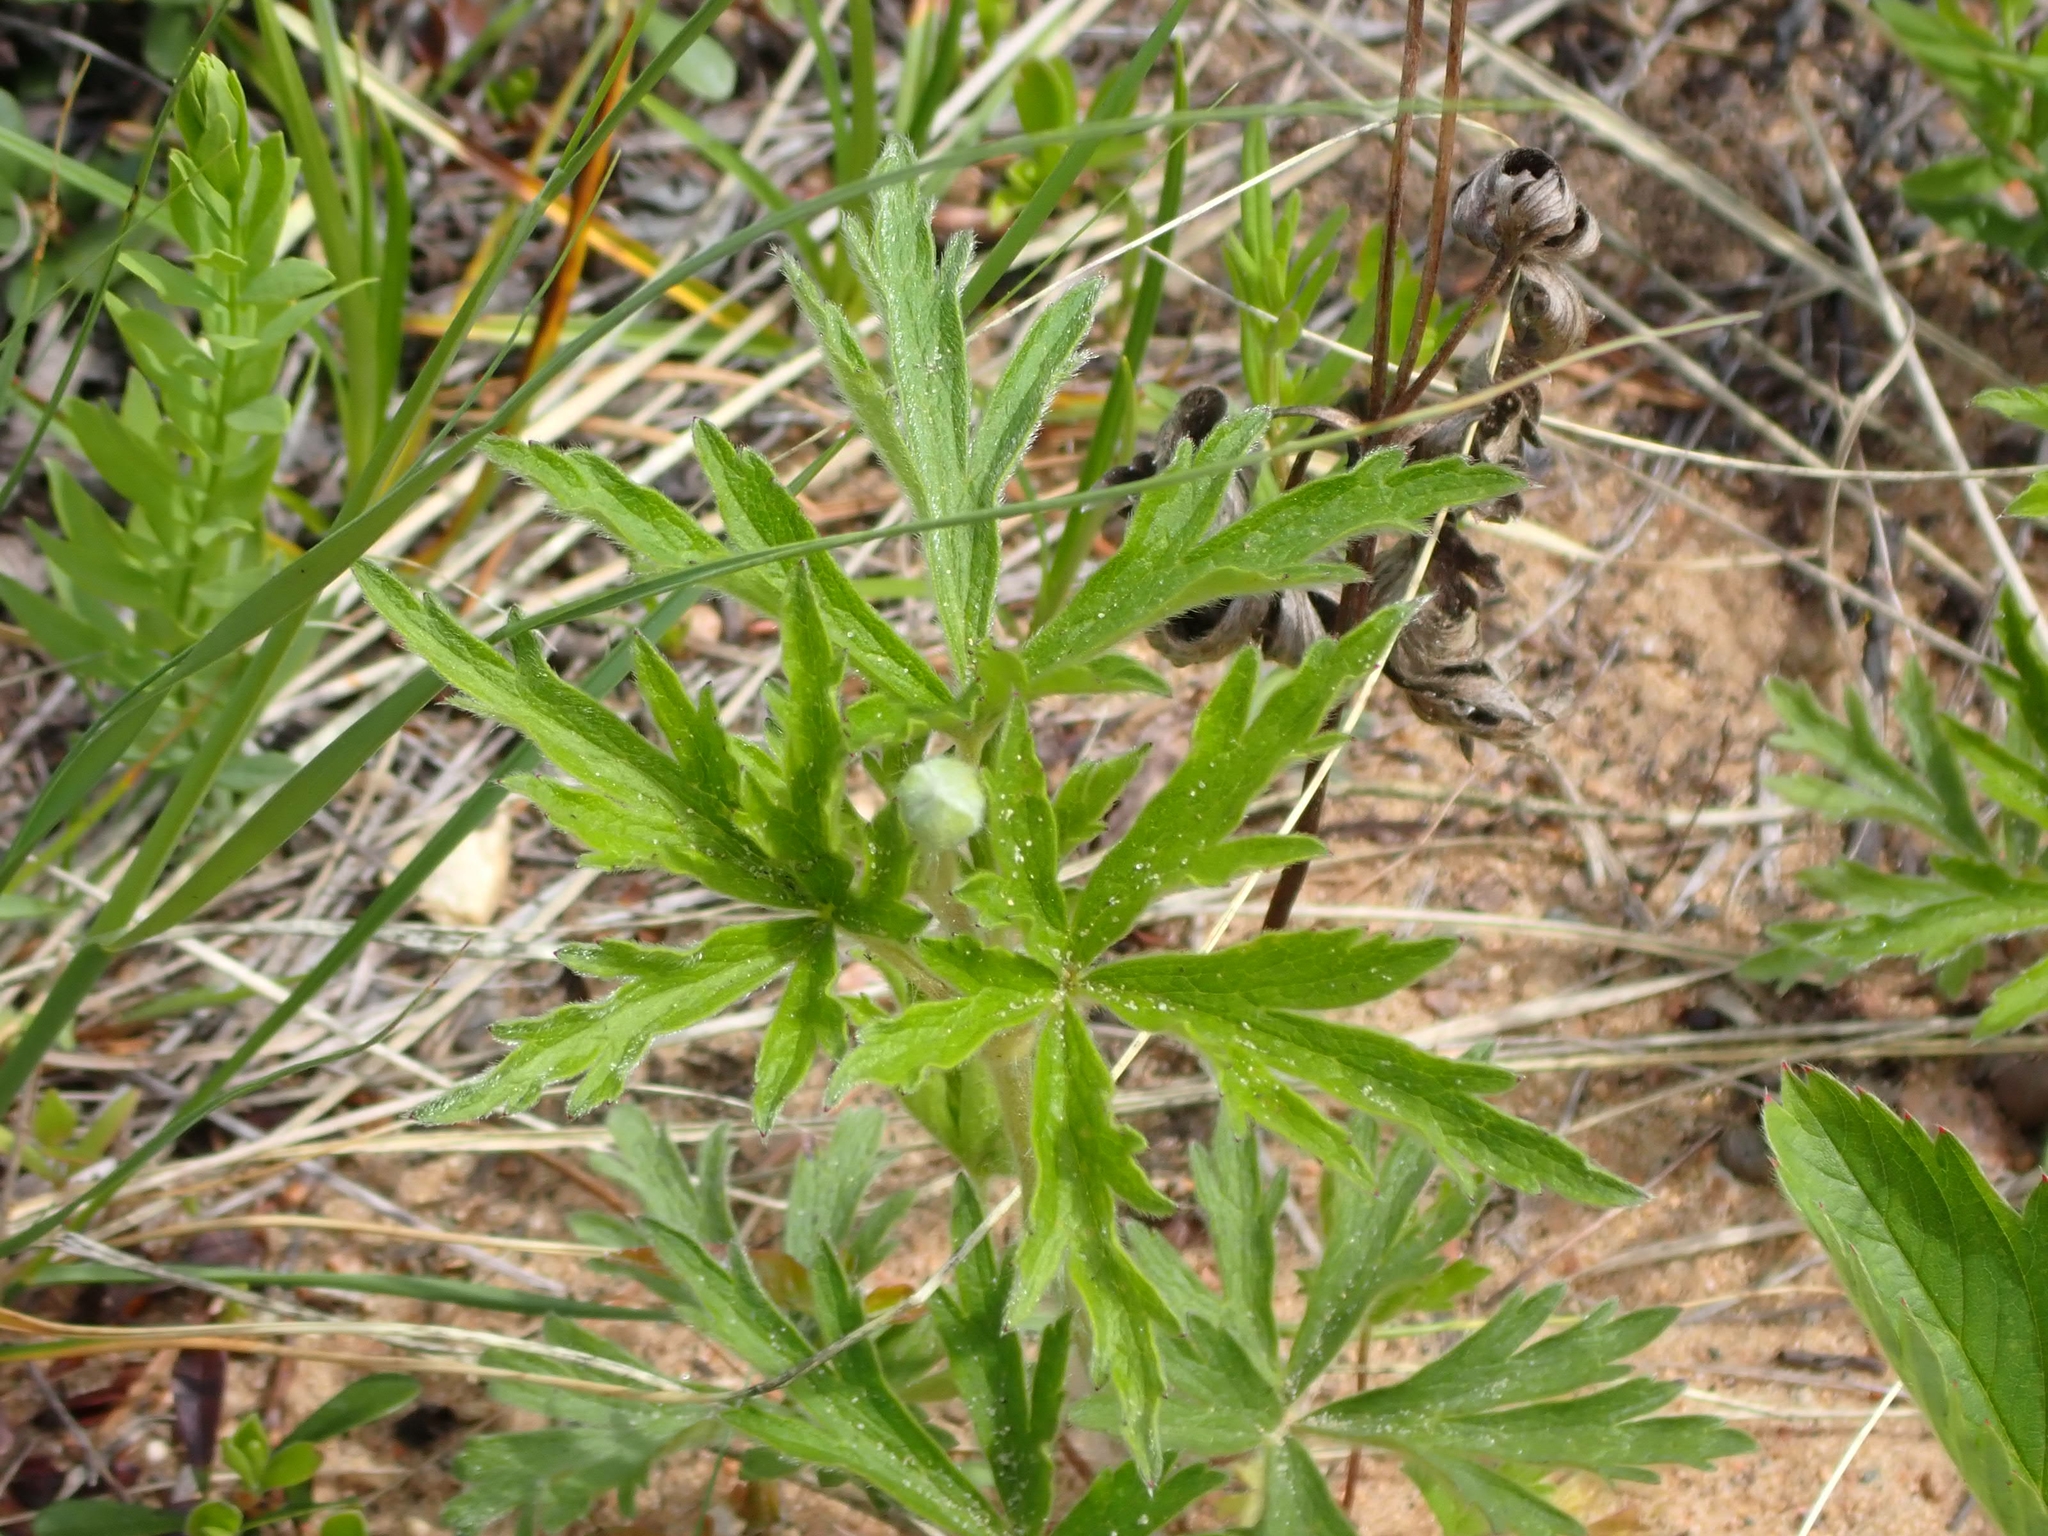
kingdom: Plantae
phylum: Tracheophyta
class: Magnoliopsida
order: Ranunculales
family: Ranunculaceae
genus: Anemone
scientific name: Anemone cylindrica
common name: Candle anemone
